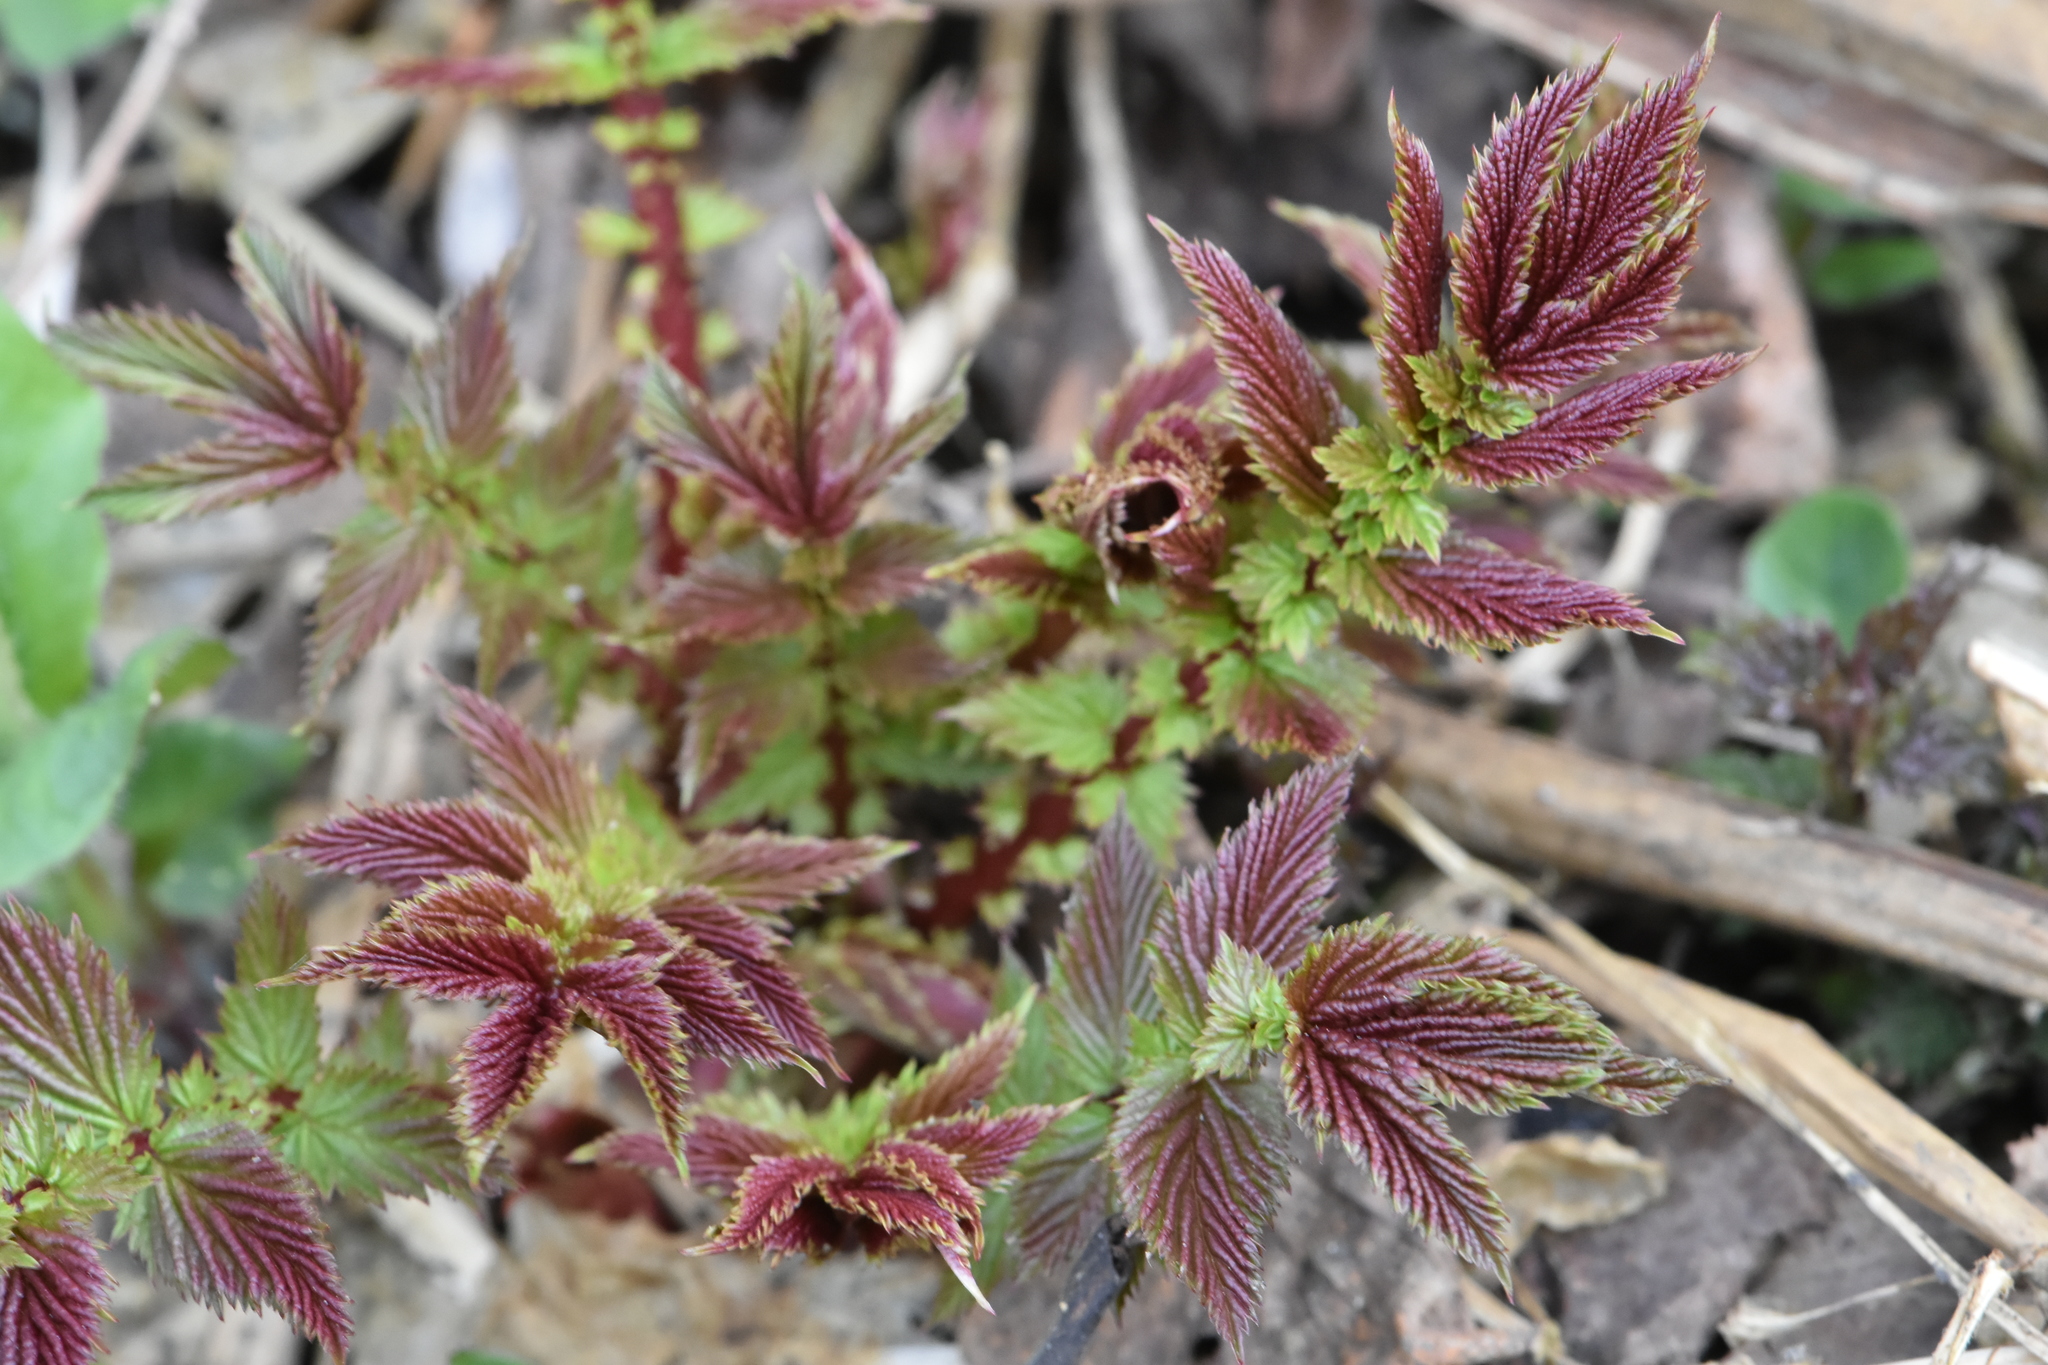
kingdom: Plantae
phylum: Tracheophyta
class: Magnoliopsida
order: Rosales
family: Rosaceae
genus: Sorbaria
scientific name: Sorbaria sorbifolia
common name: False spiraea
